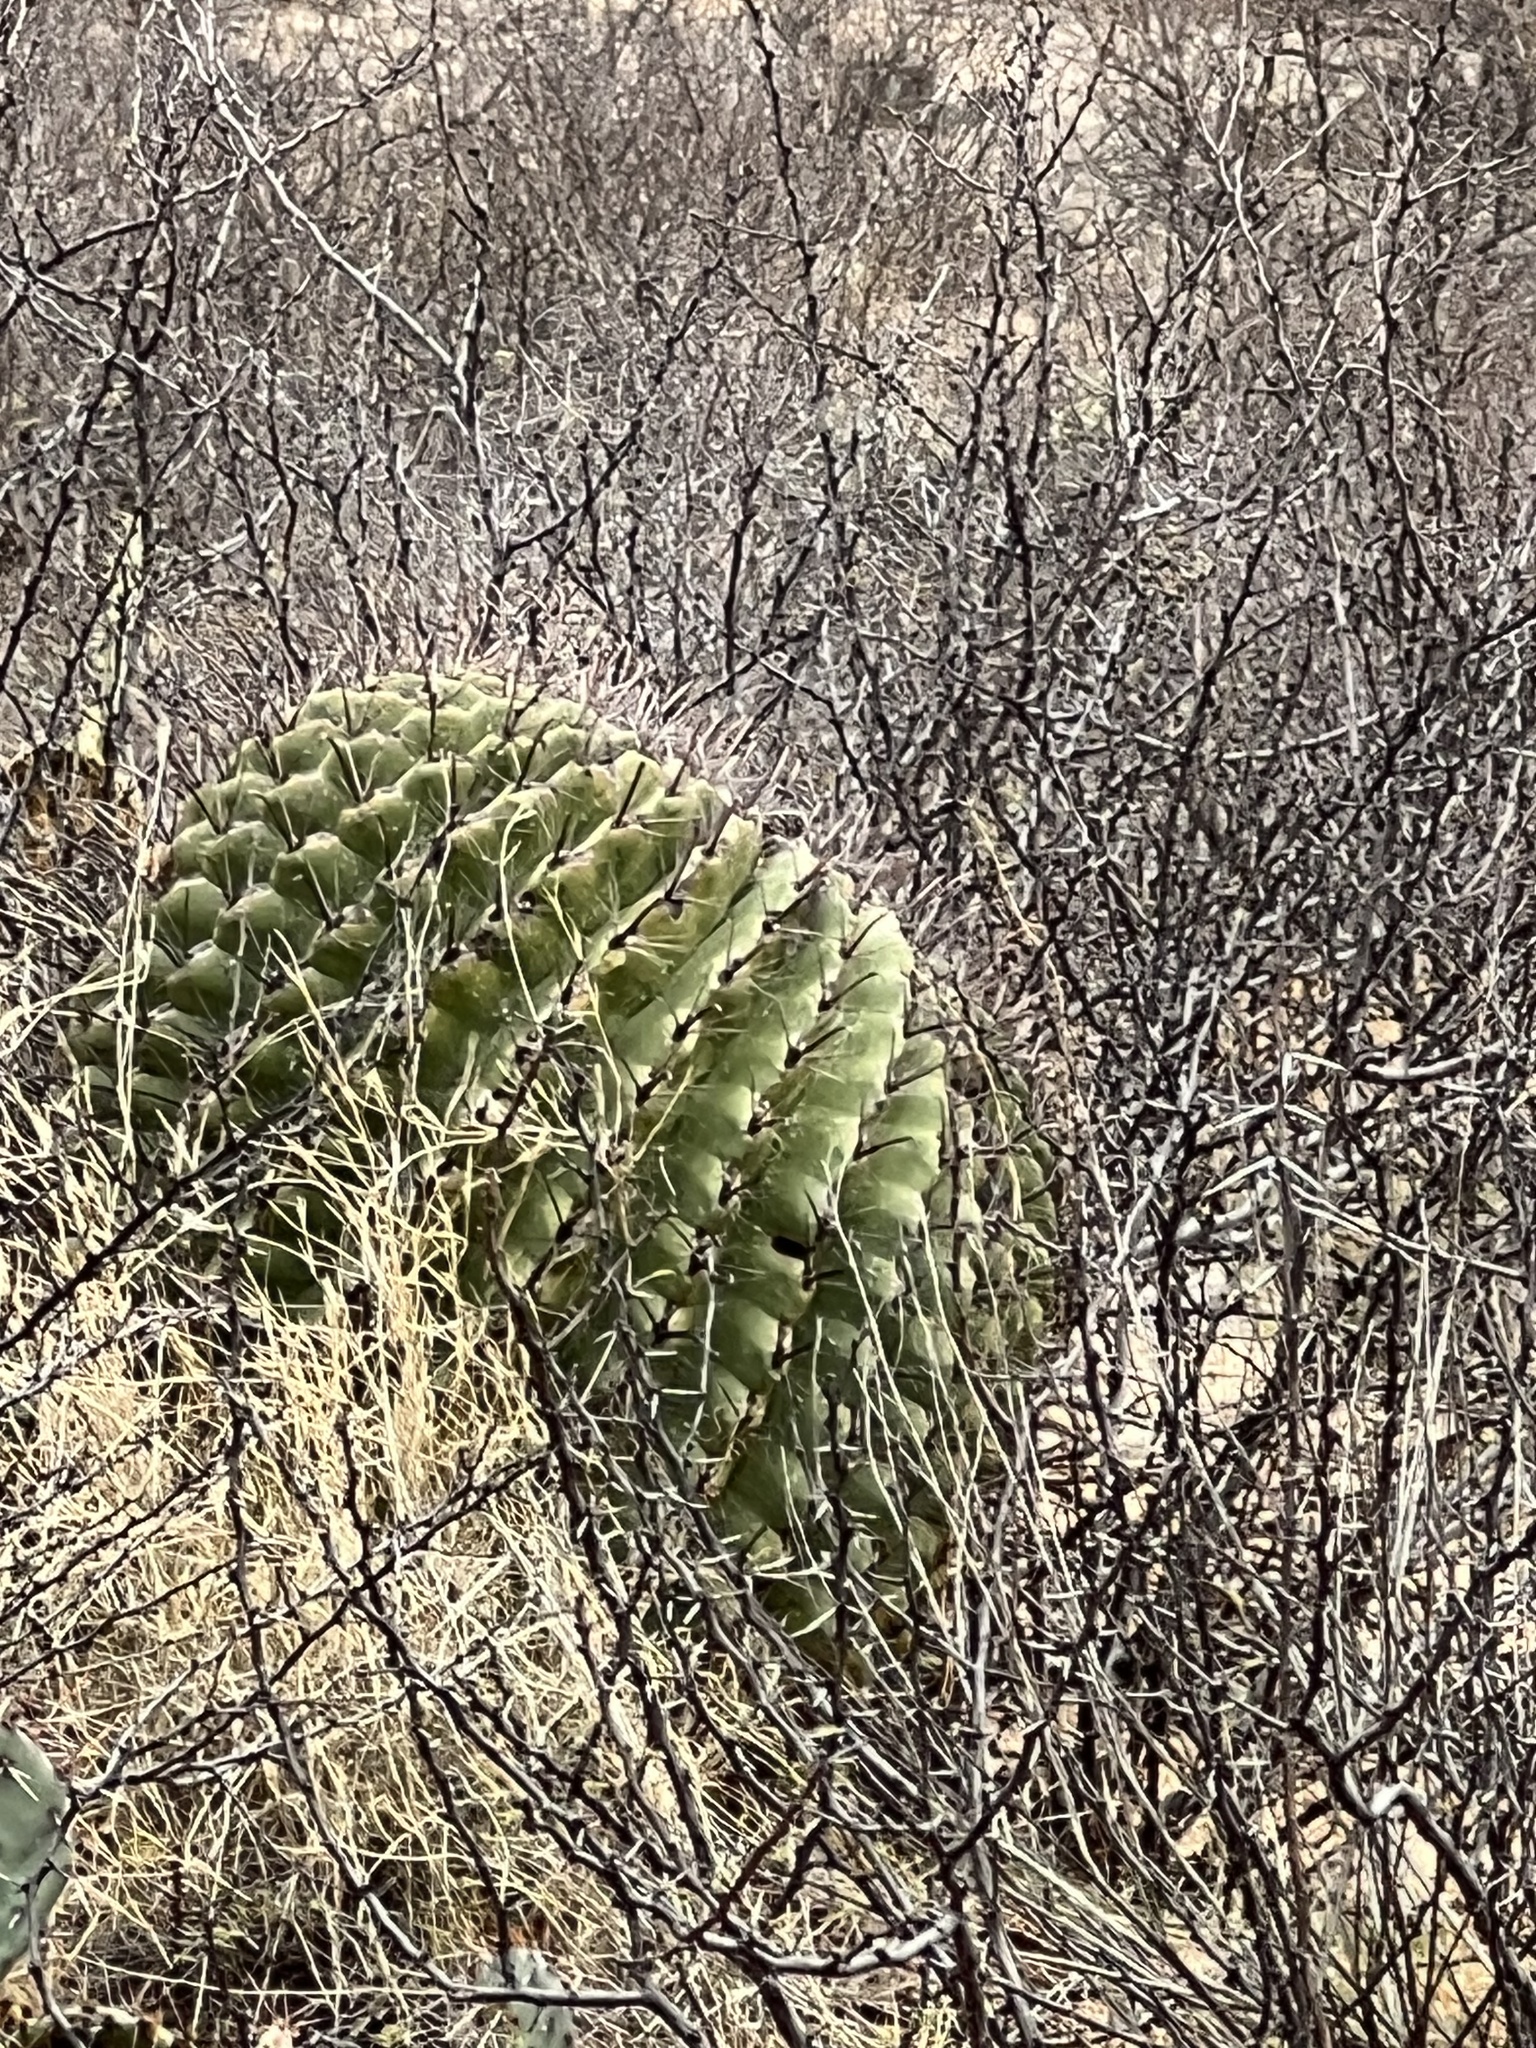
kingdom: Plantae
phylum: Tracheophyta
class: Magnoliopsida
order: Caryophyllales
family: Cactaceae
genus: Ferocactus
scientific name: Ferocactus wislizeni
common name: Candy barrel cactus
